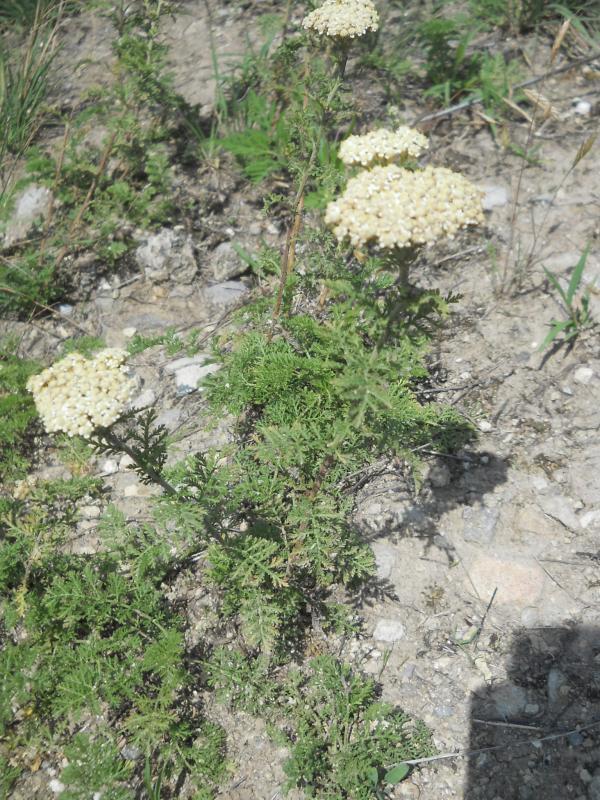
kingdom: Plantae
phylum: Tracheophyta
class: Magnoliopsida
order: Asterales
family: Asteraceae
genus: Achillea
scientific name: Achillea nobilis
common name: Noble yarrow
